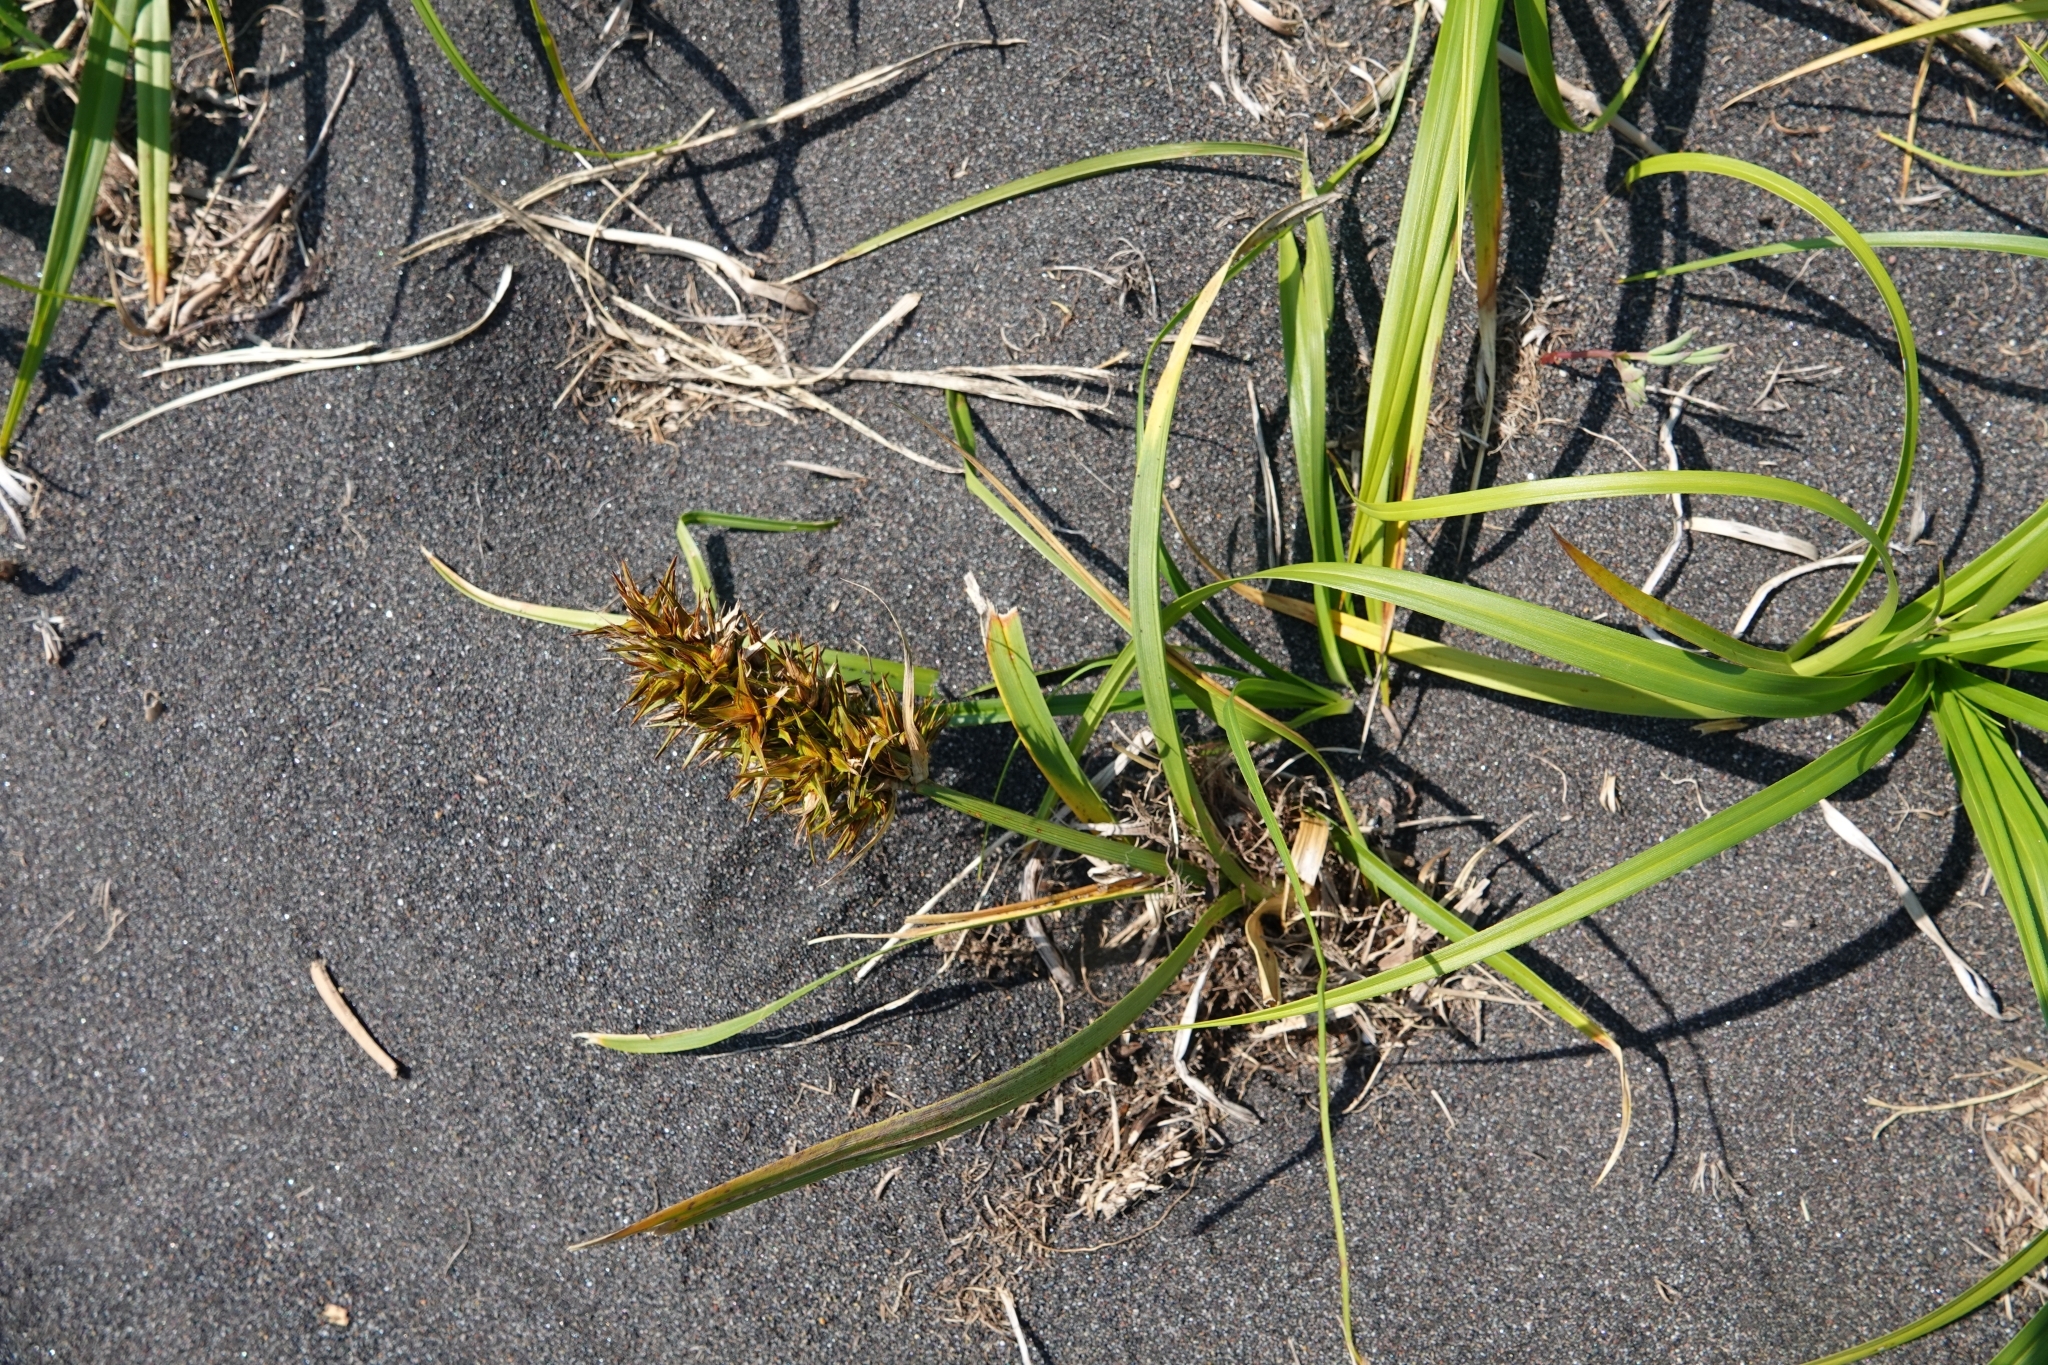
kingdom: Plantae
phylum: Tracheophyta
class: Liliopsida
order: Poales
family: Cyperaceae
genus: Carex
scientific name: Carex macrocephala
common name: Large-head sedge
